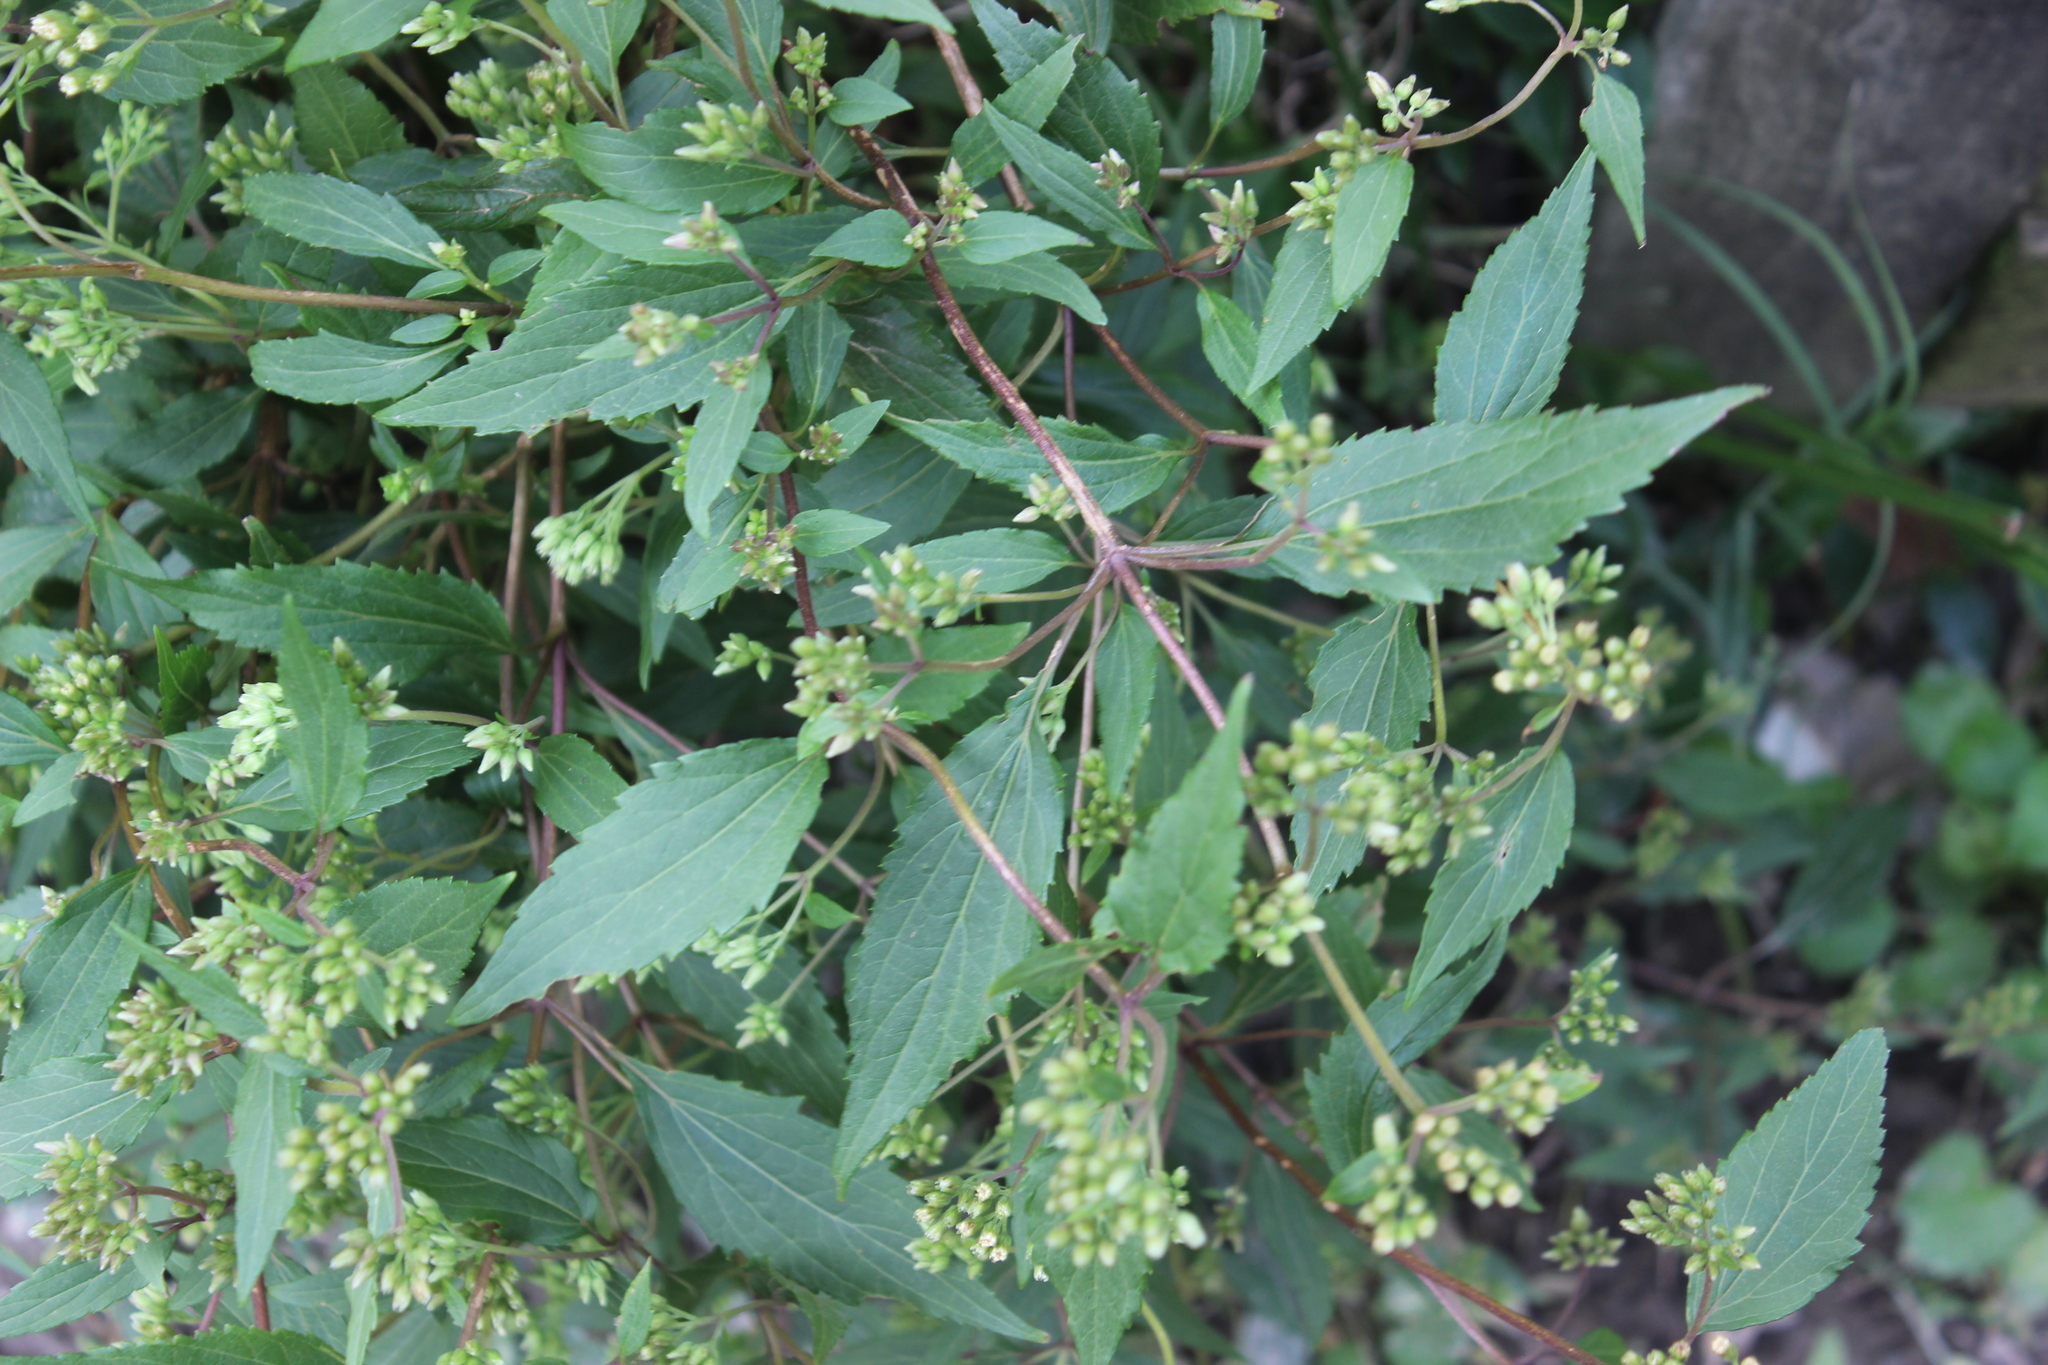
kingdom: Plantae
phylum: Tracheophyta
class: Magnoliopsida
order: Asterales
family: Asteraceae
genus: Ageratina
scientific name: Ageratina riparia
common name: Creeping croftonweed
